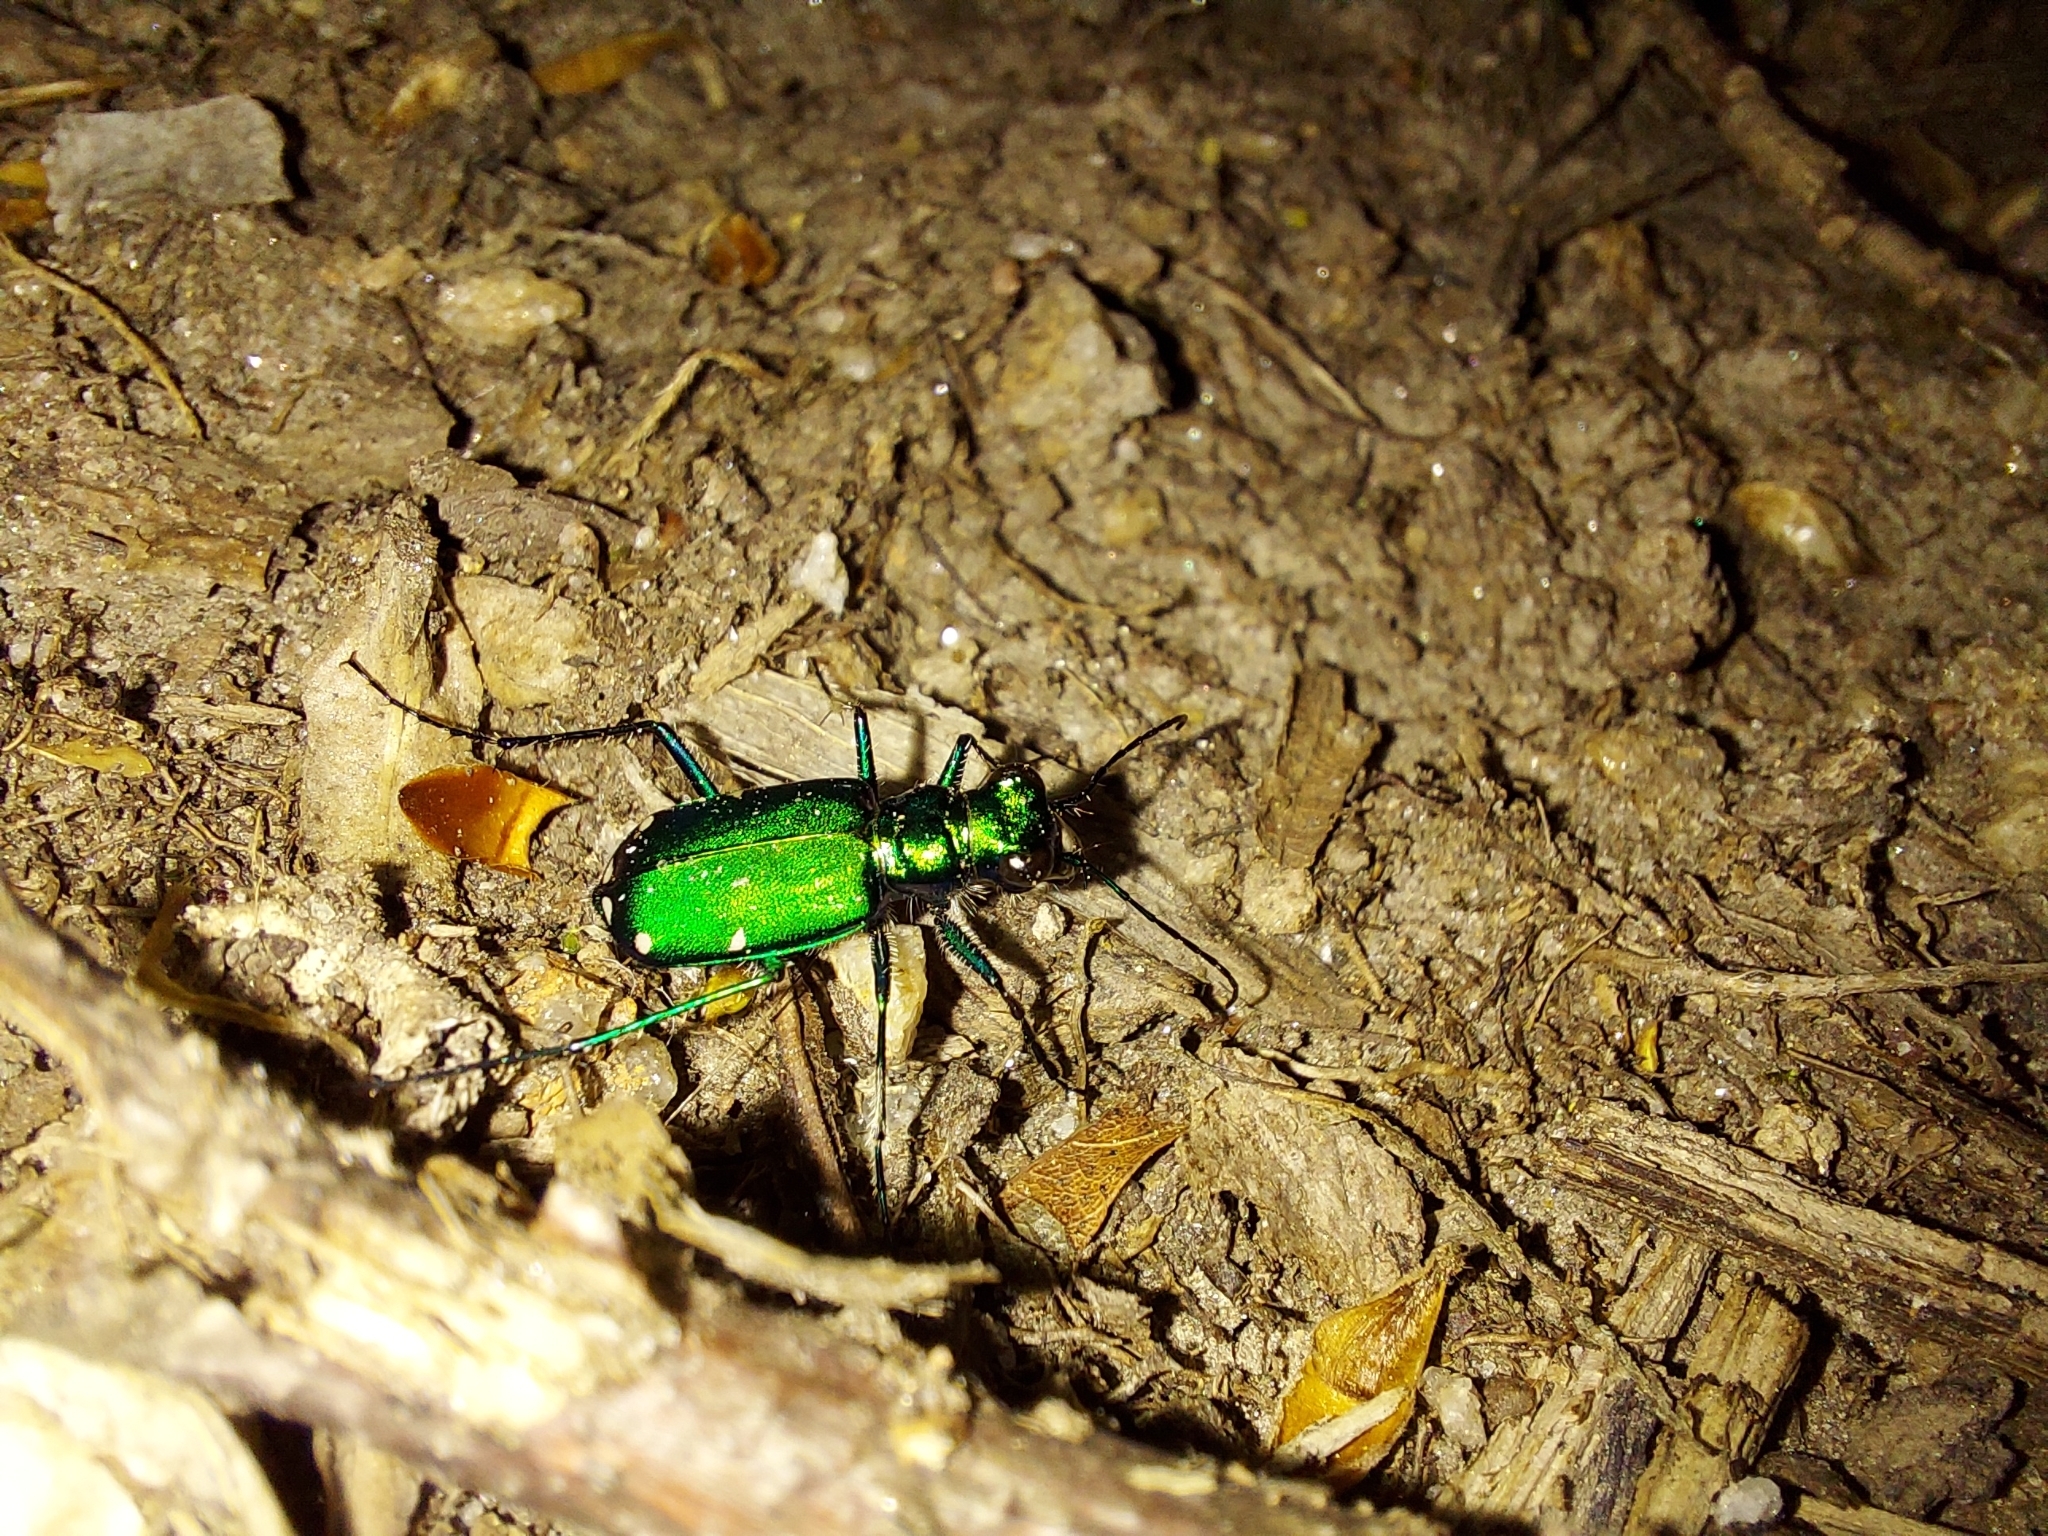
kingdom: Animalia
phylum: Arthropoda
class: Insecta
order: Coleoptera
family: Carabidae
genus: Cicindela
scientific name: Cicindela sexguttata
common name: Six-spotted tiger beetle
